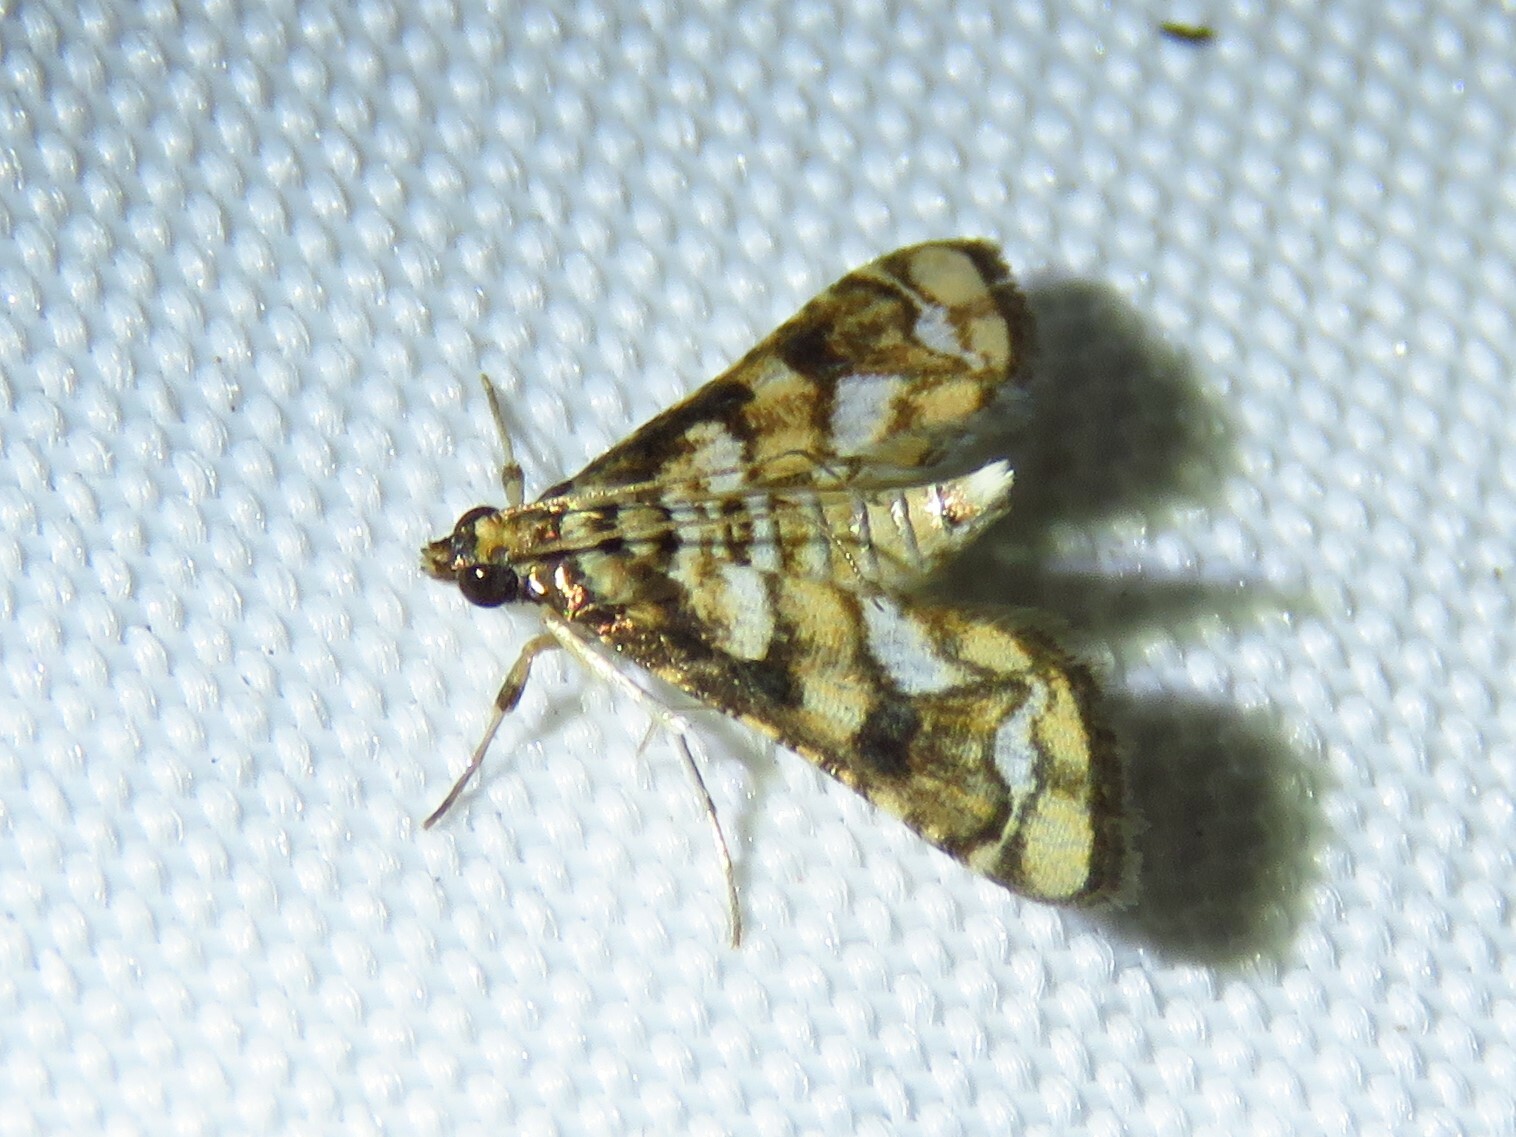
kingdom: Animalia
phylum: Arthropoda
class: Insecta
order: Lepidoptera
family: Crambidae
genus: Hileithia
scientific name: Hileithia magualis
